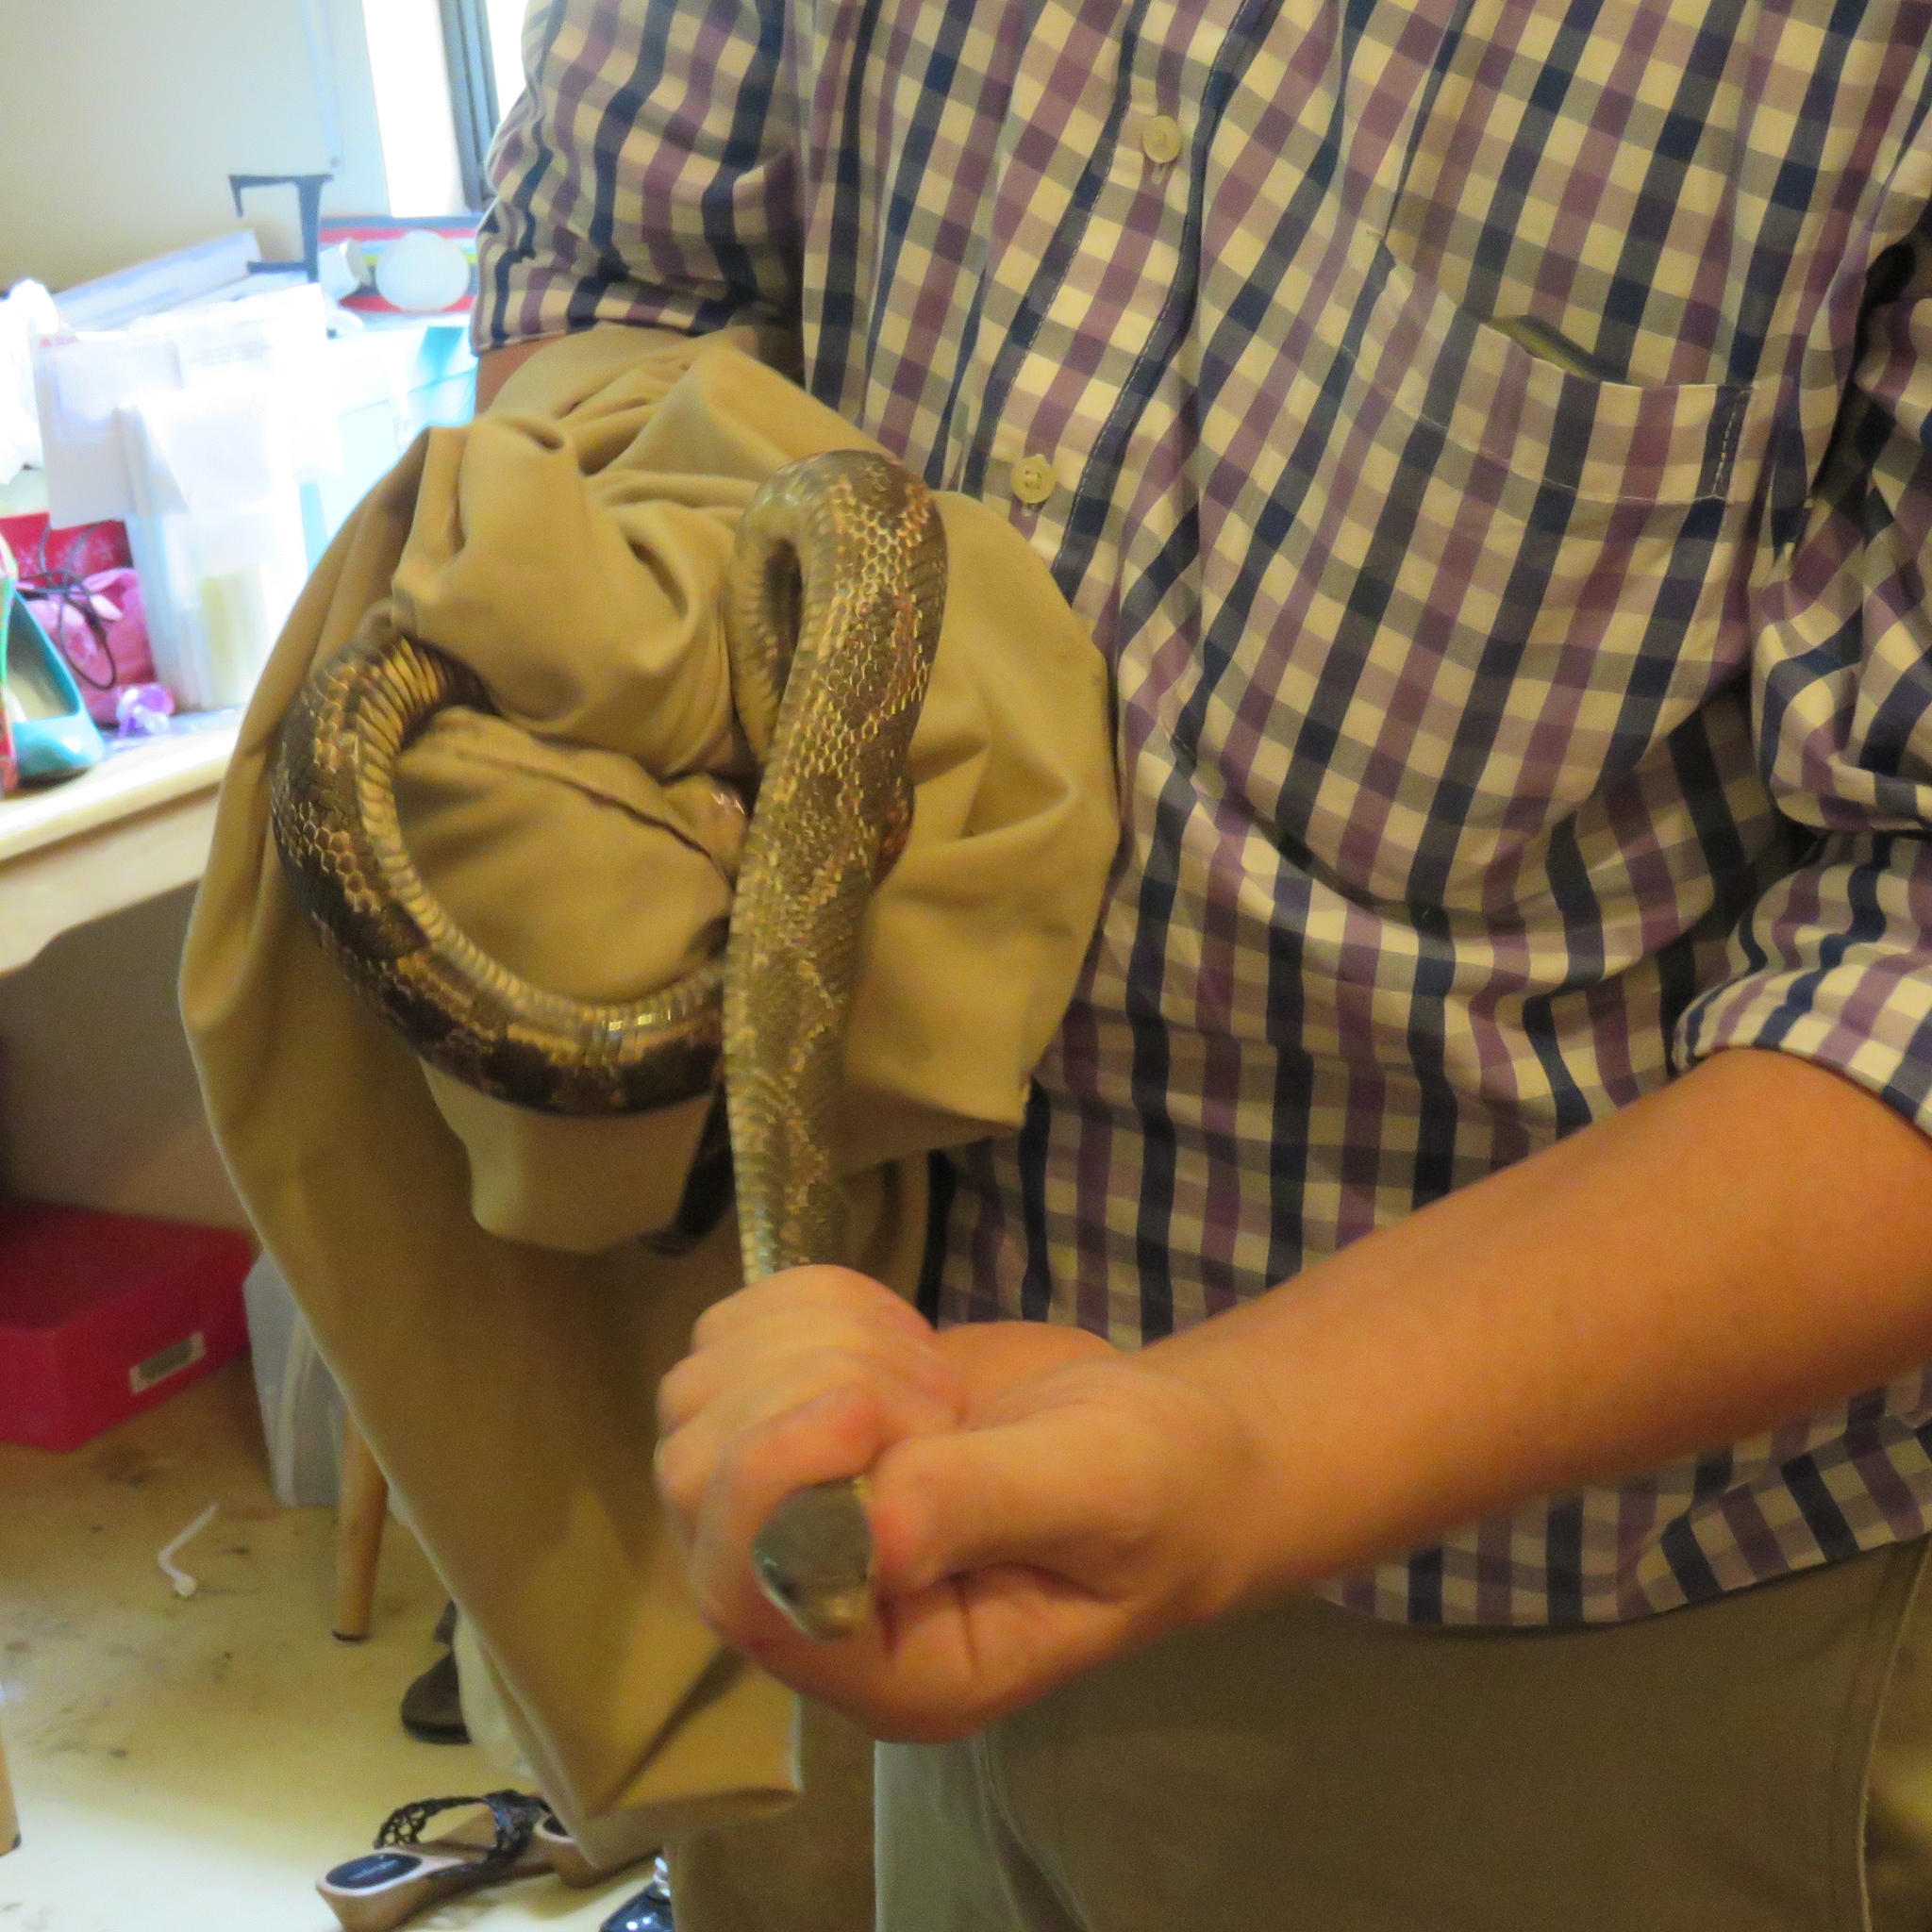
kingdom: Animalia
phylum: Chordata
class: Squamata
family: Colubridae
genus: Pantherophis
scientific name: Pantherophis obsoletus
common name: Black rat snake
